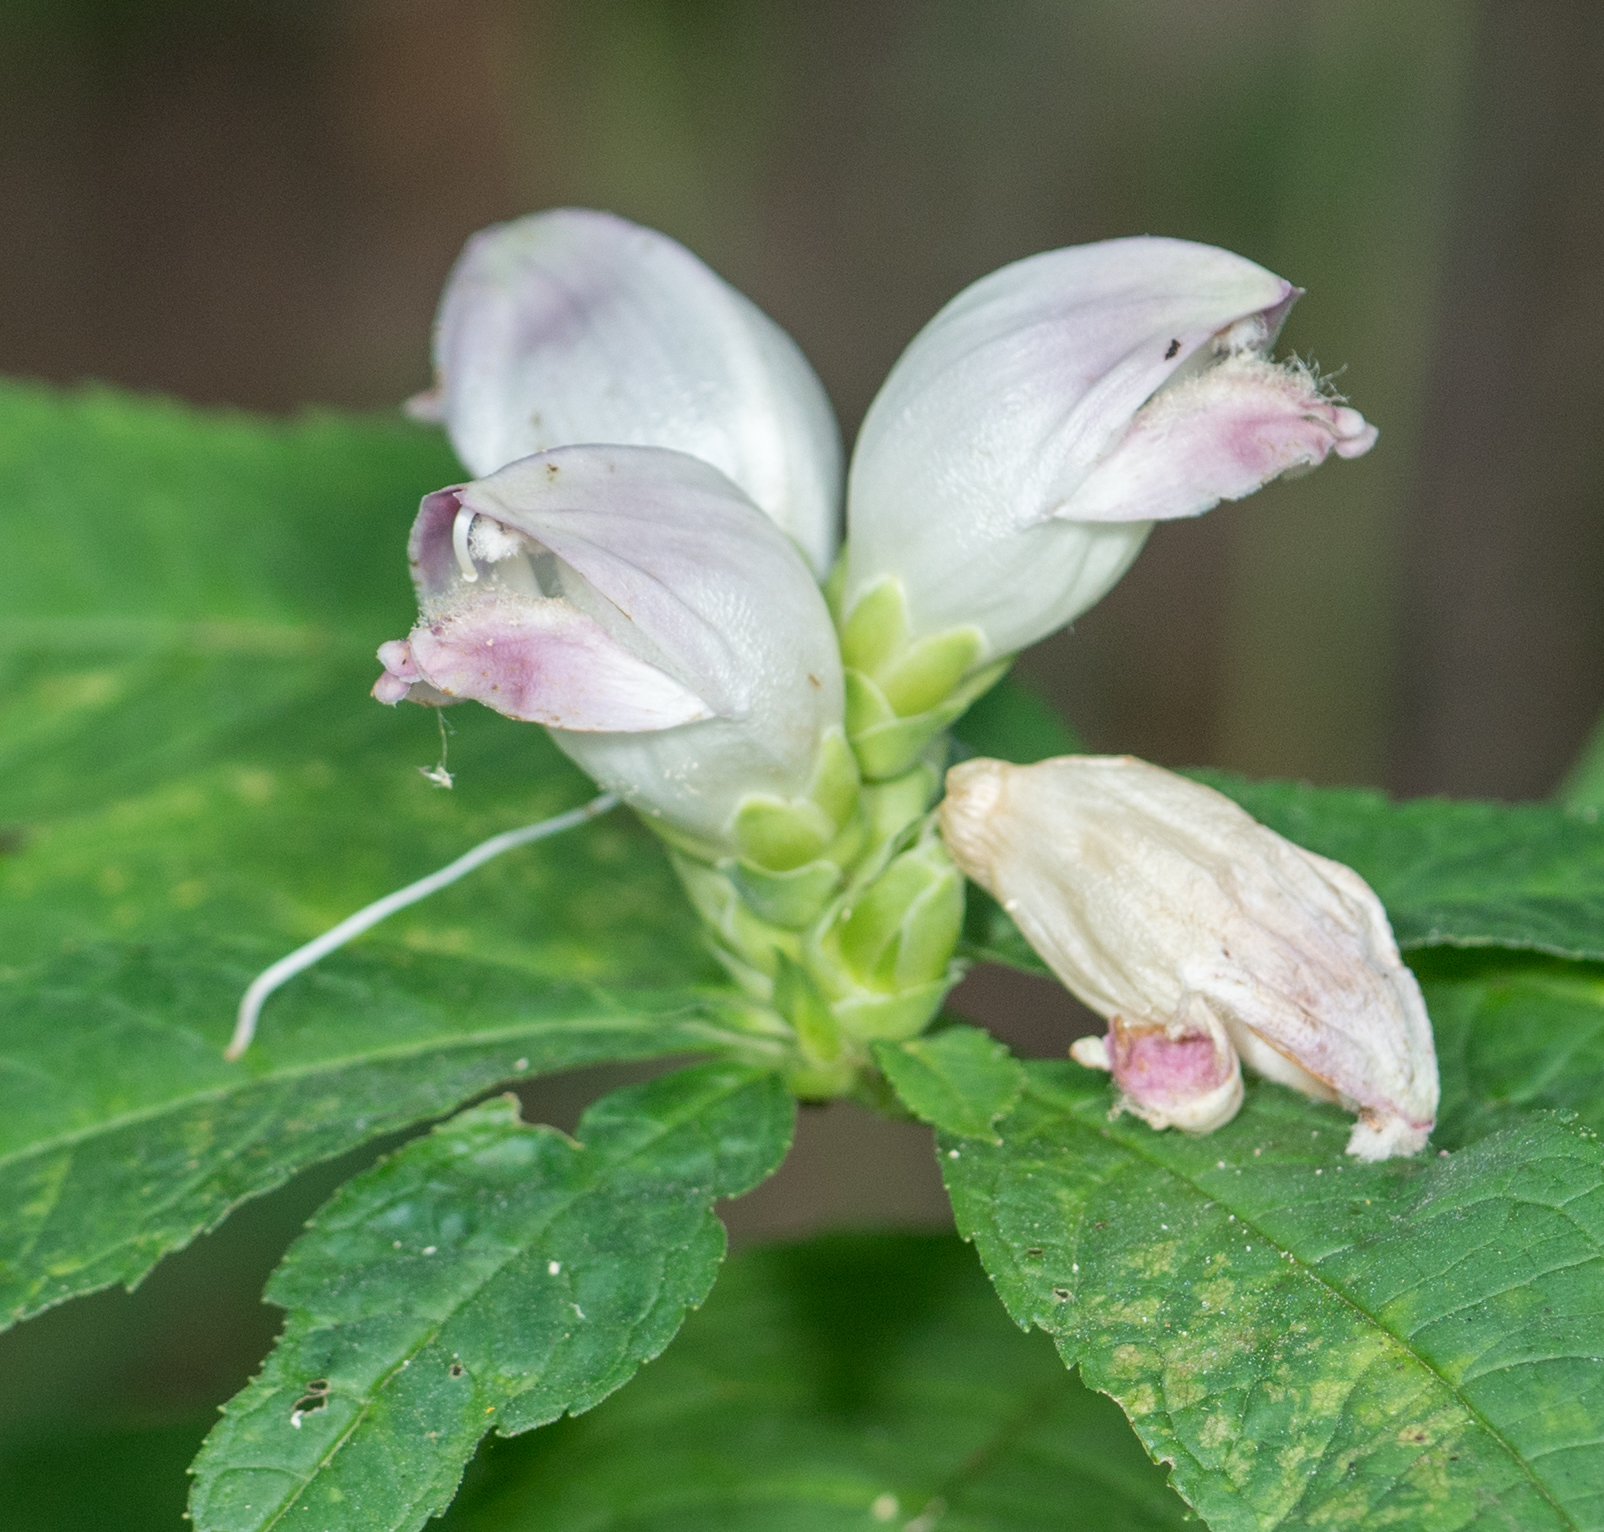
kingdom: Plantae
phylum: Tracheophyta
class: Magnoliopsida
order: Lamiales
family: Plantaginaceae
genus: Chelone
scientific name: Chelone glabra
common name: Snakehead
